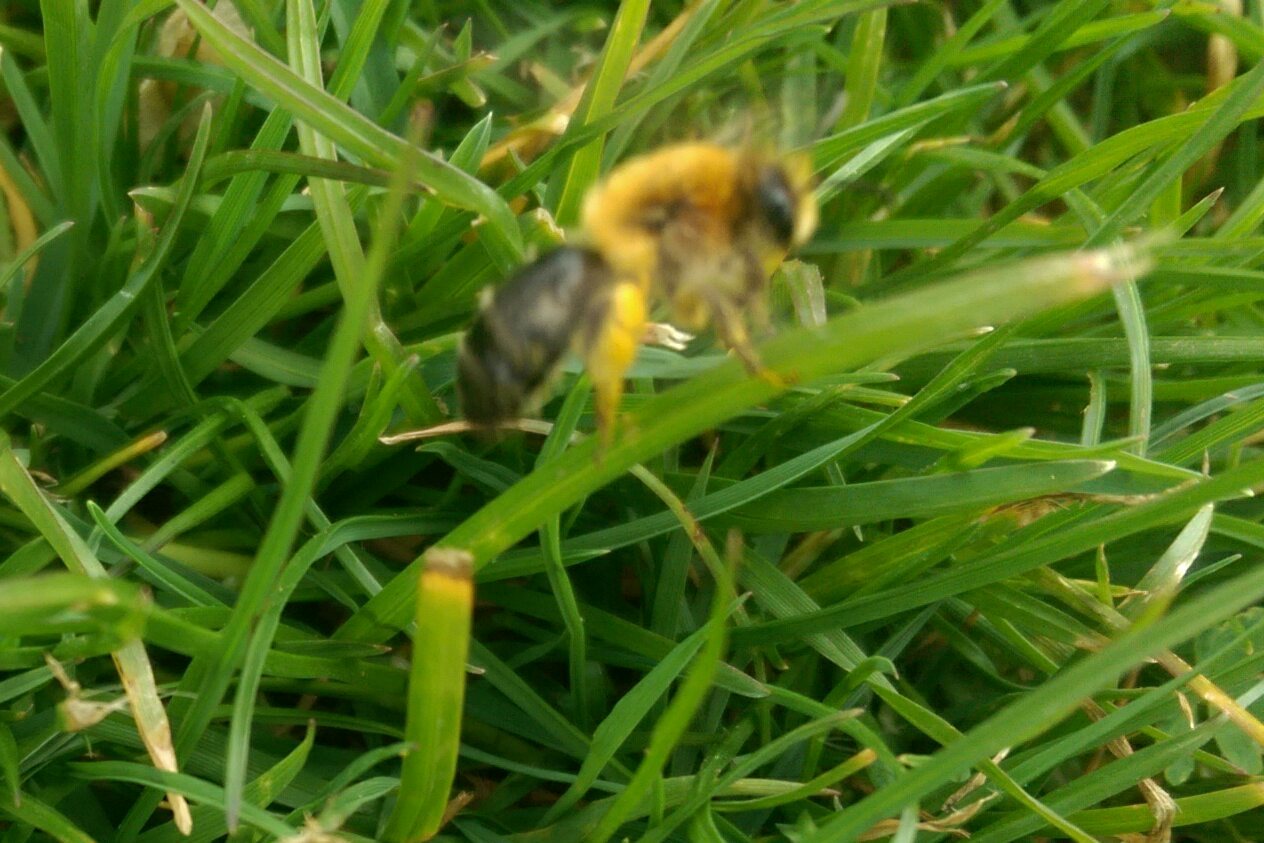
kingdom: Animalia
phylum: Arthropoda
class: Insecta
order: Hymenoptera
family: Andrenidae
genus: Andrena
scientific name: Andrena nitida
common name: Grey-patched mining bee
